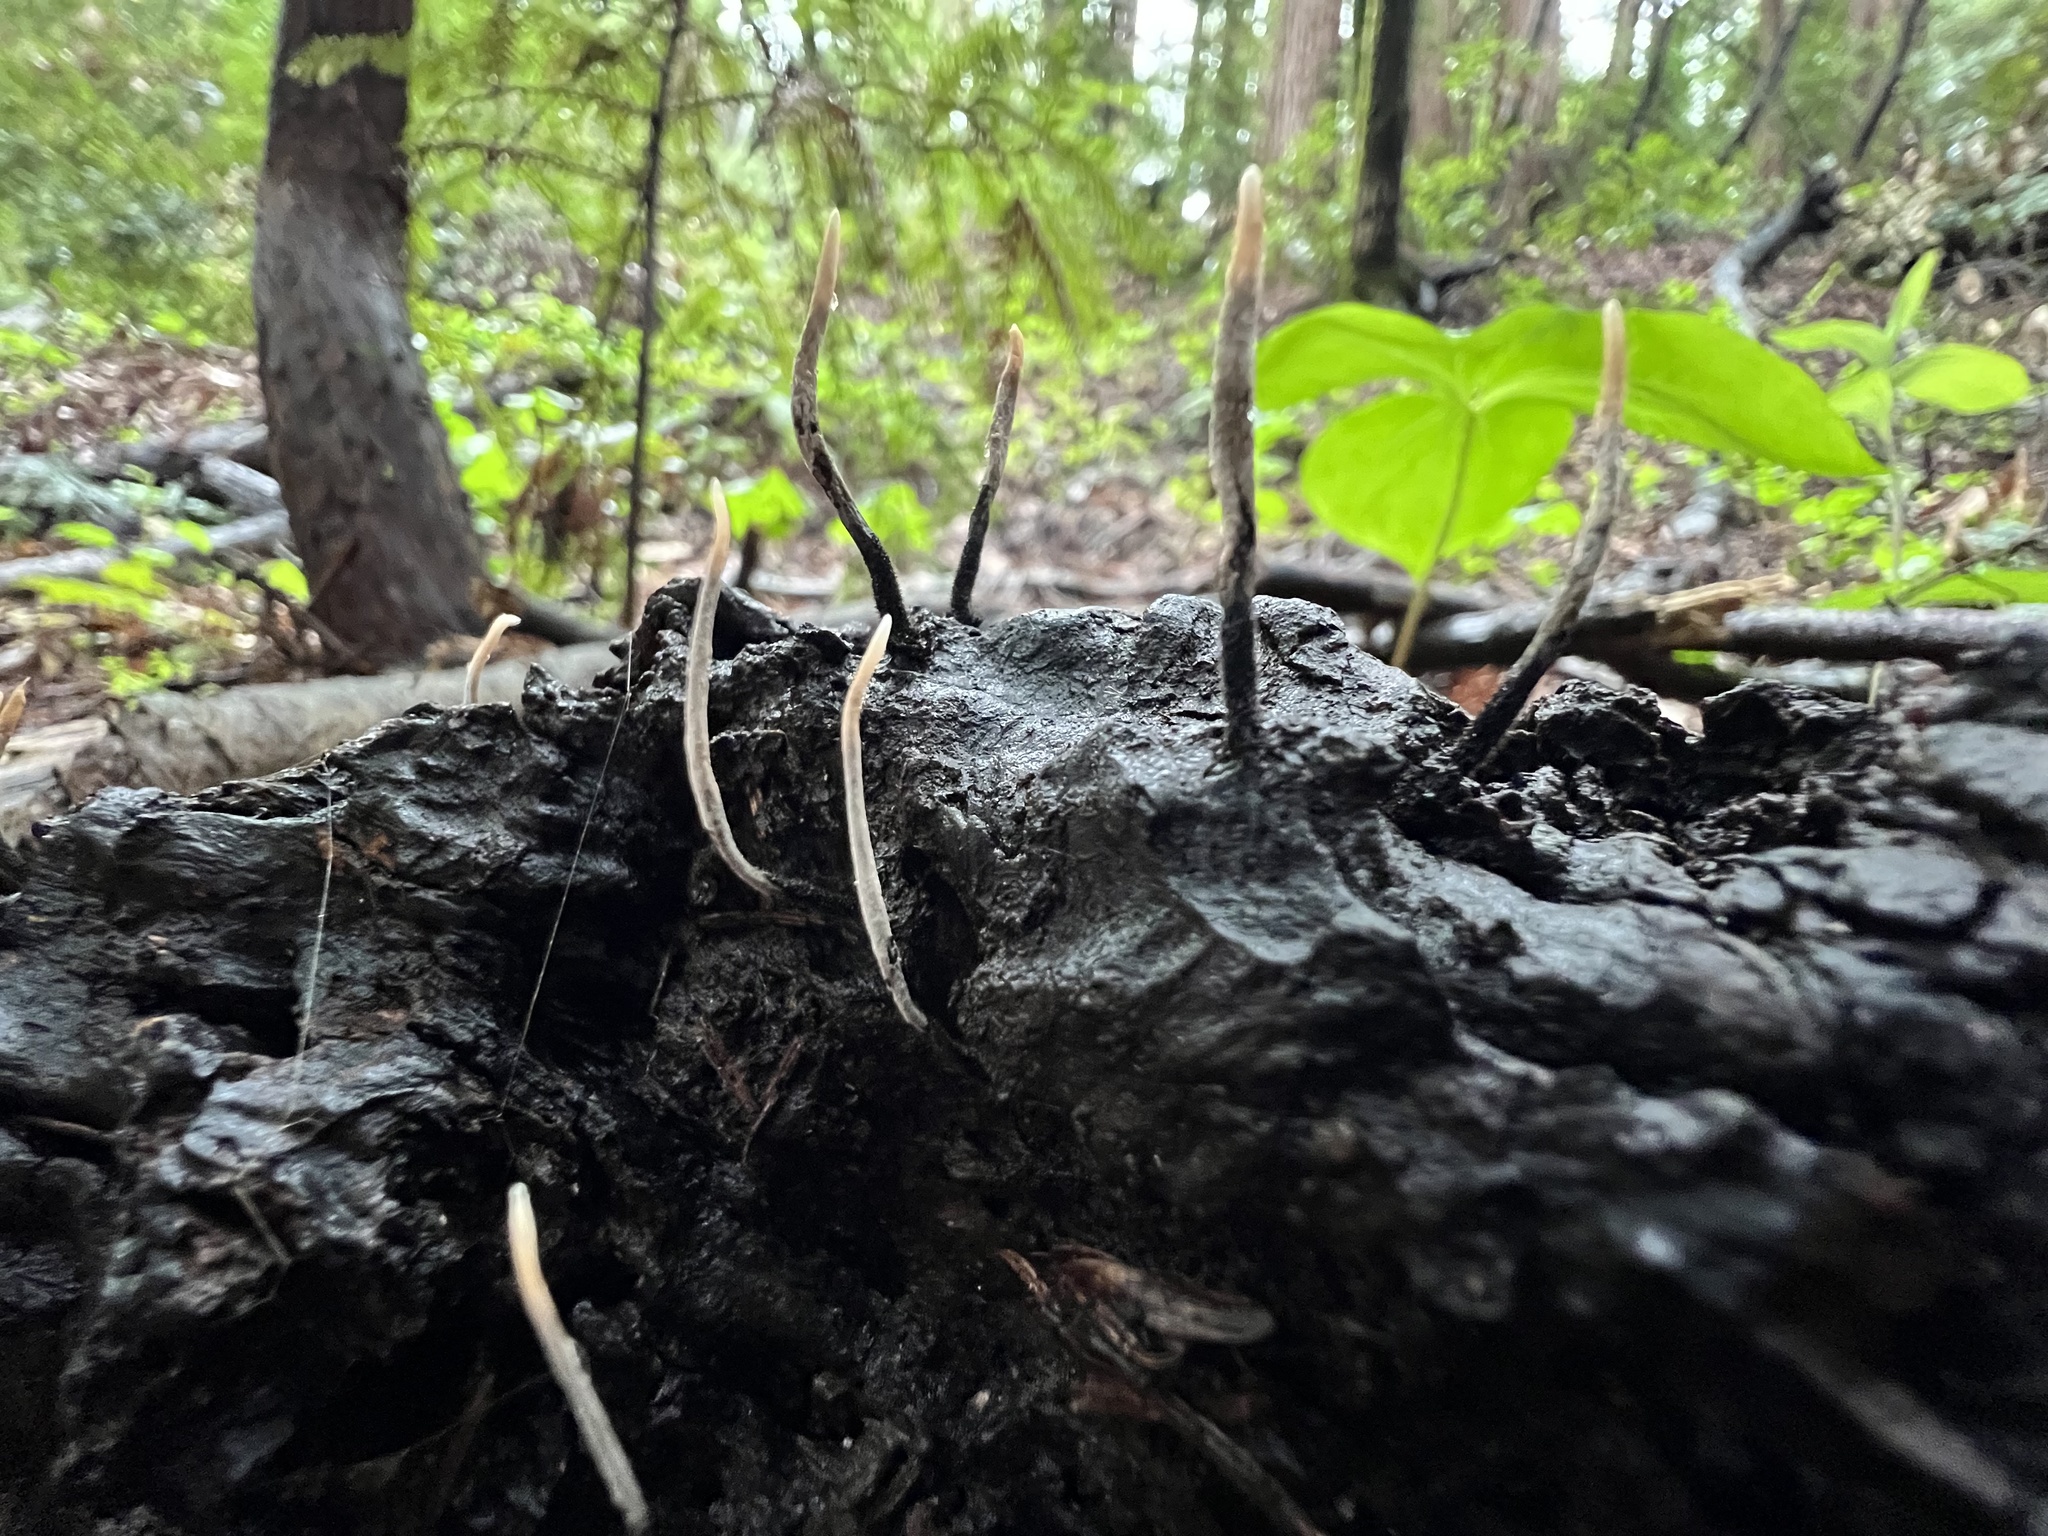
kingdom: Fungi
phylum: Ascomycota
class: Sordariomycetes
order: Xylariales
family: Xylariaceae
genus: Xylaria
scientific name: Xylaria hypoxylon
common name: Candle-snuff fungus
